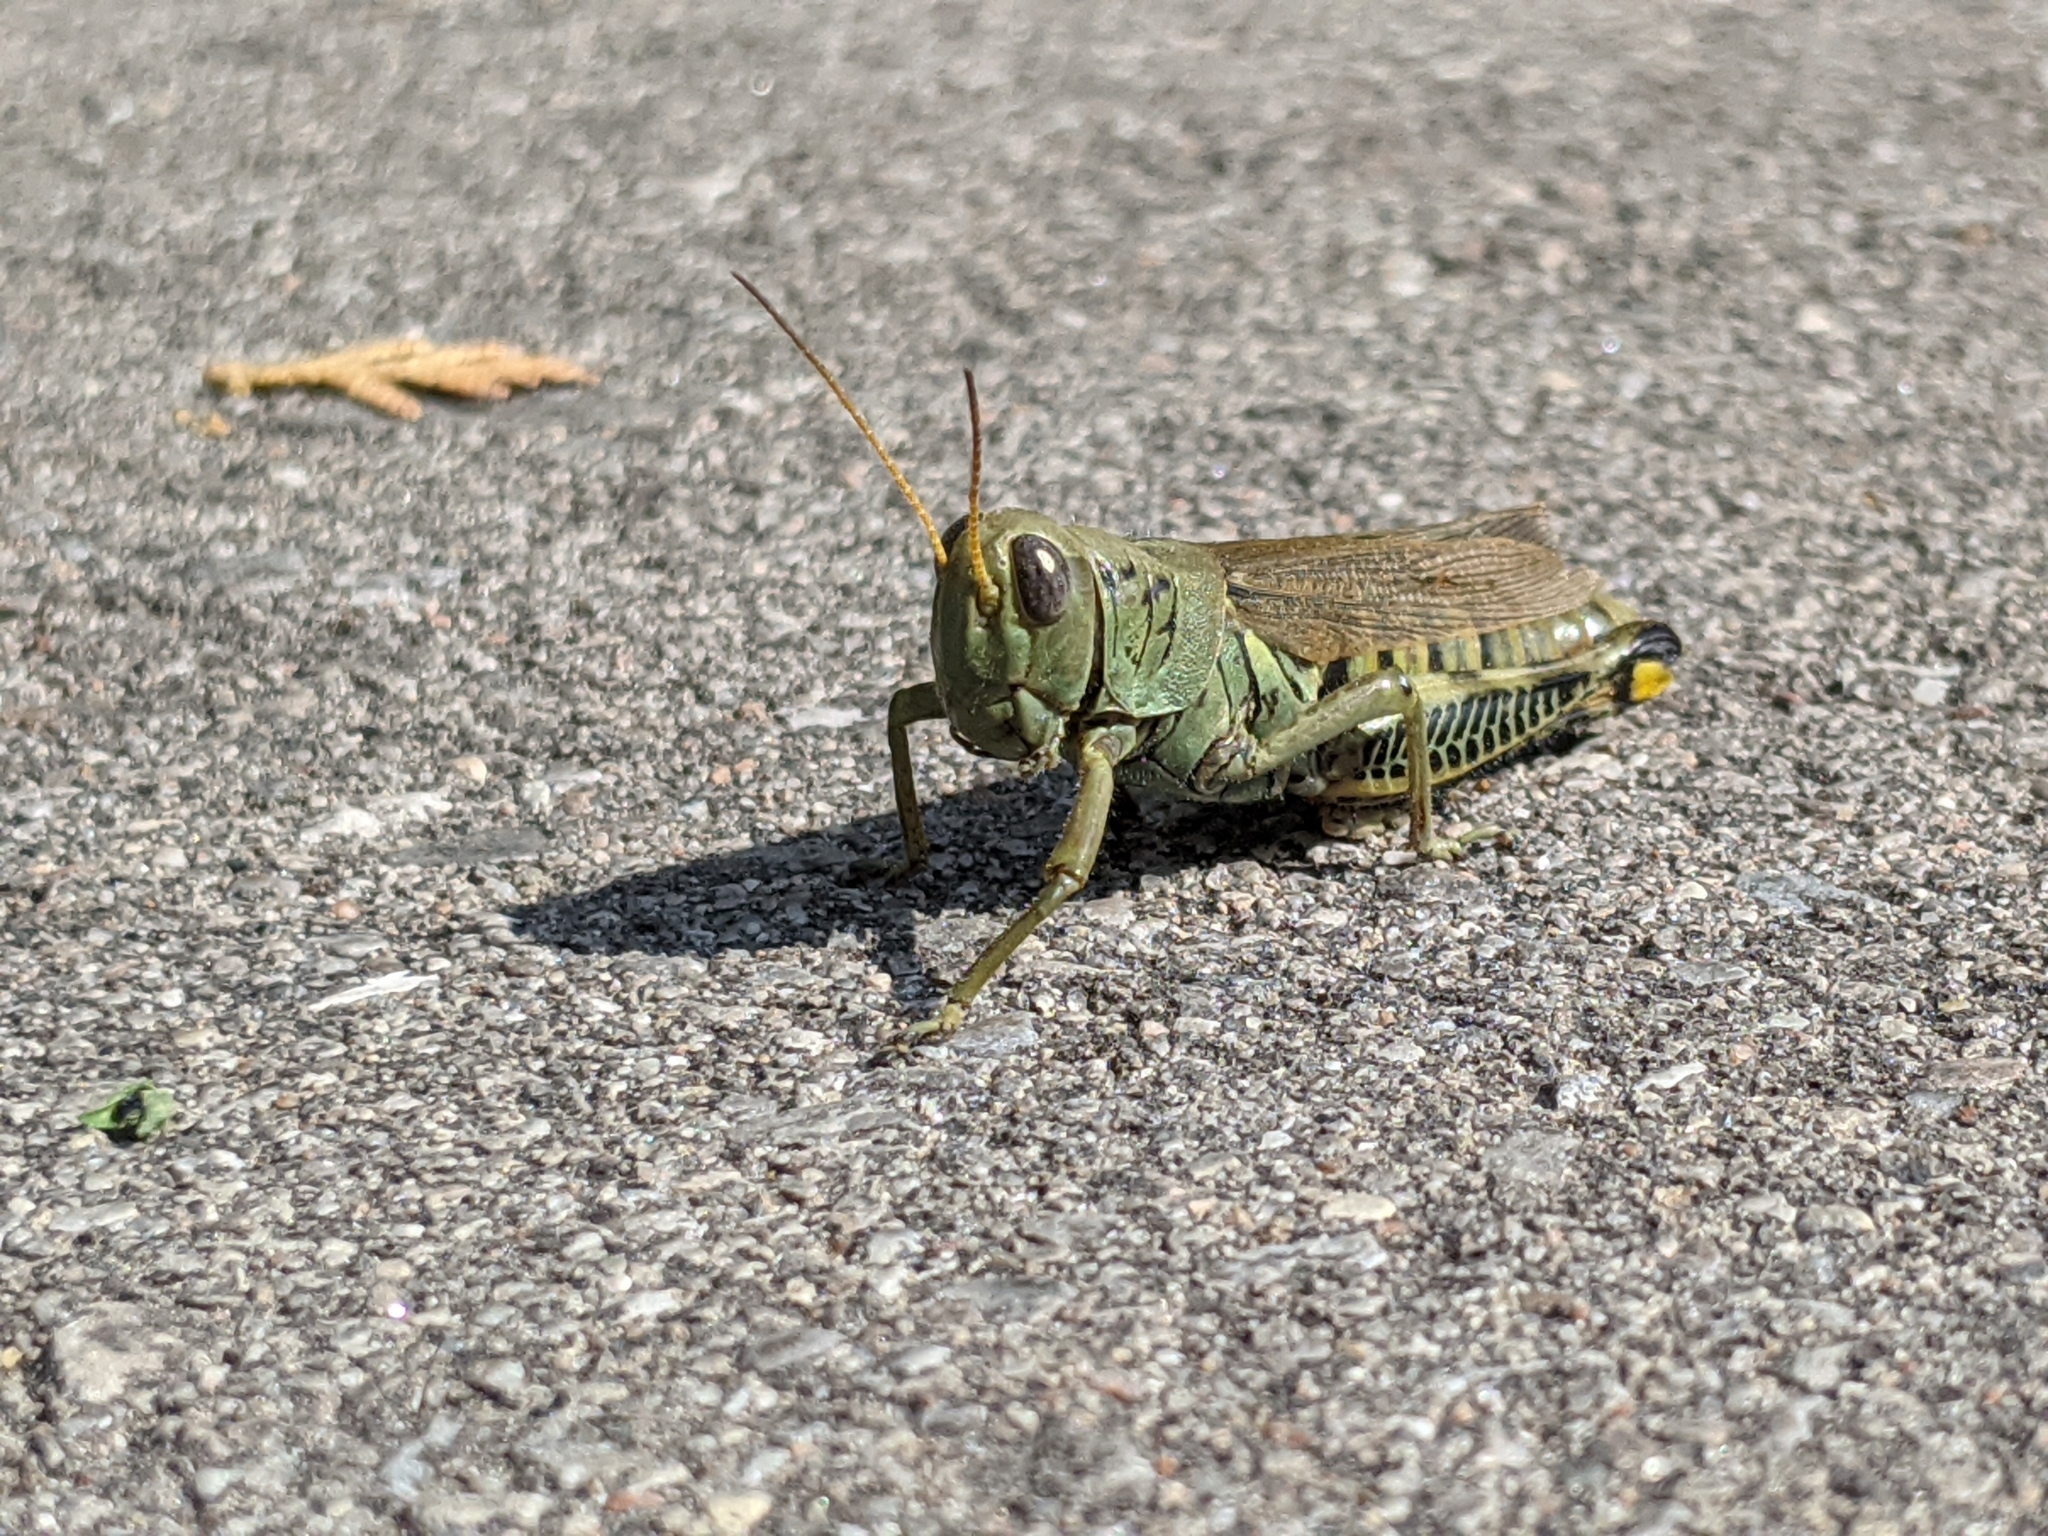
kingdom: Animalia
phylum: Arthropoda
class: Insecta
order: Orthoptera
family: Acrididae
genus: Melanoplus
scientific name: Melanoplus differentialis
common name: Differential grasshopper
